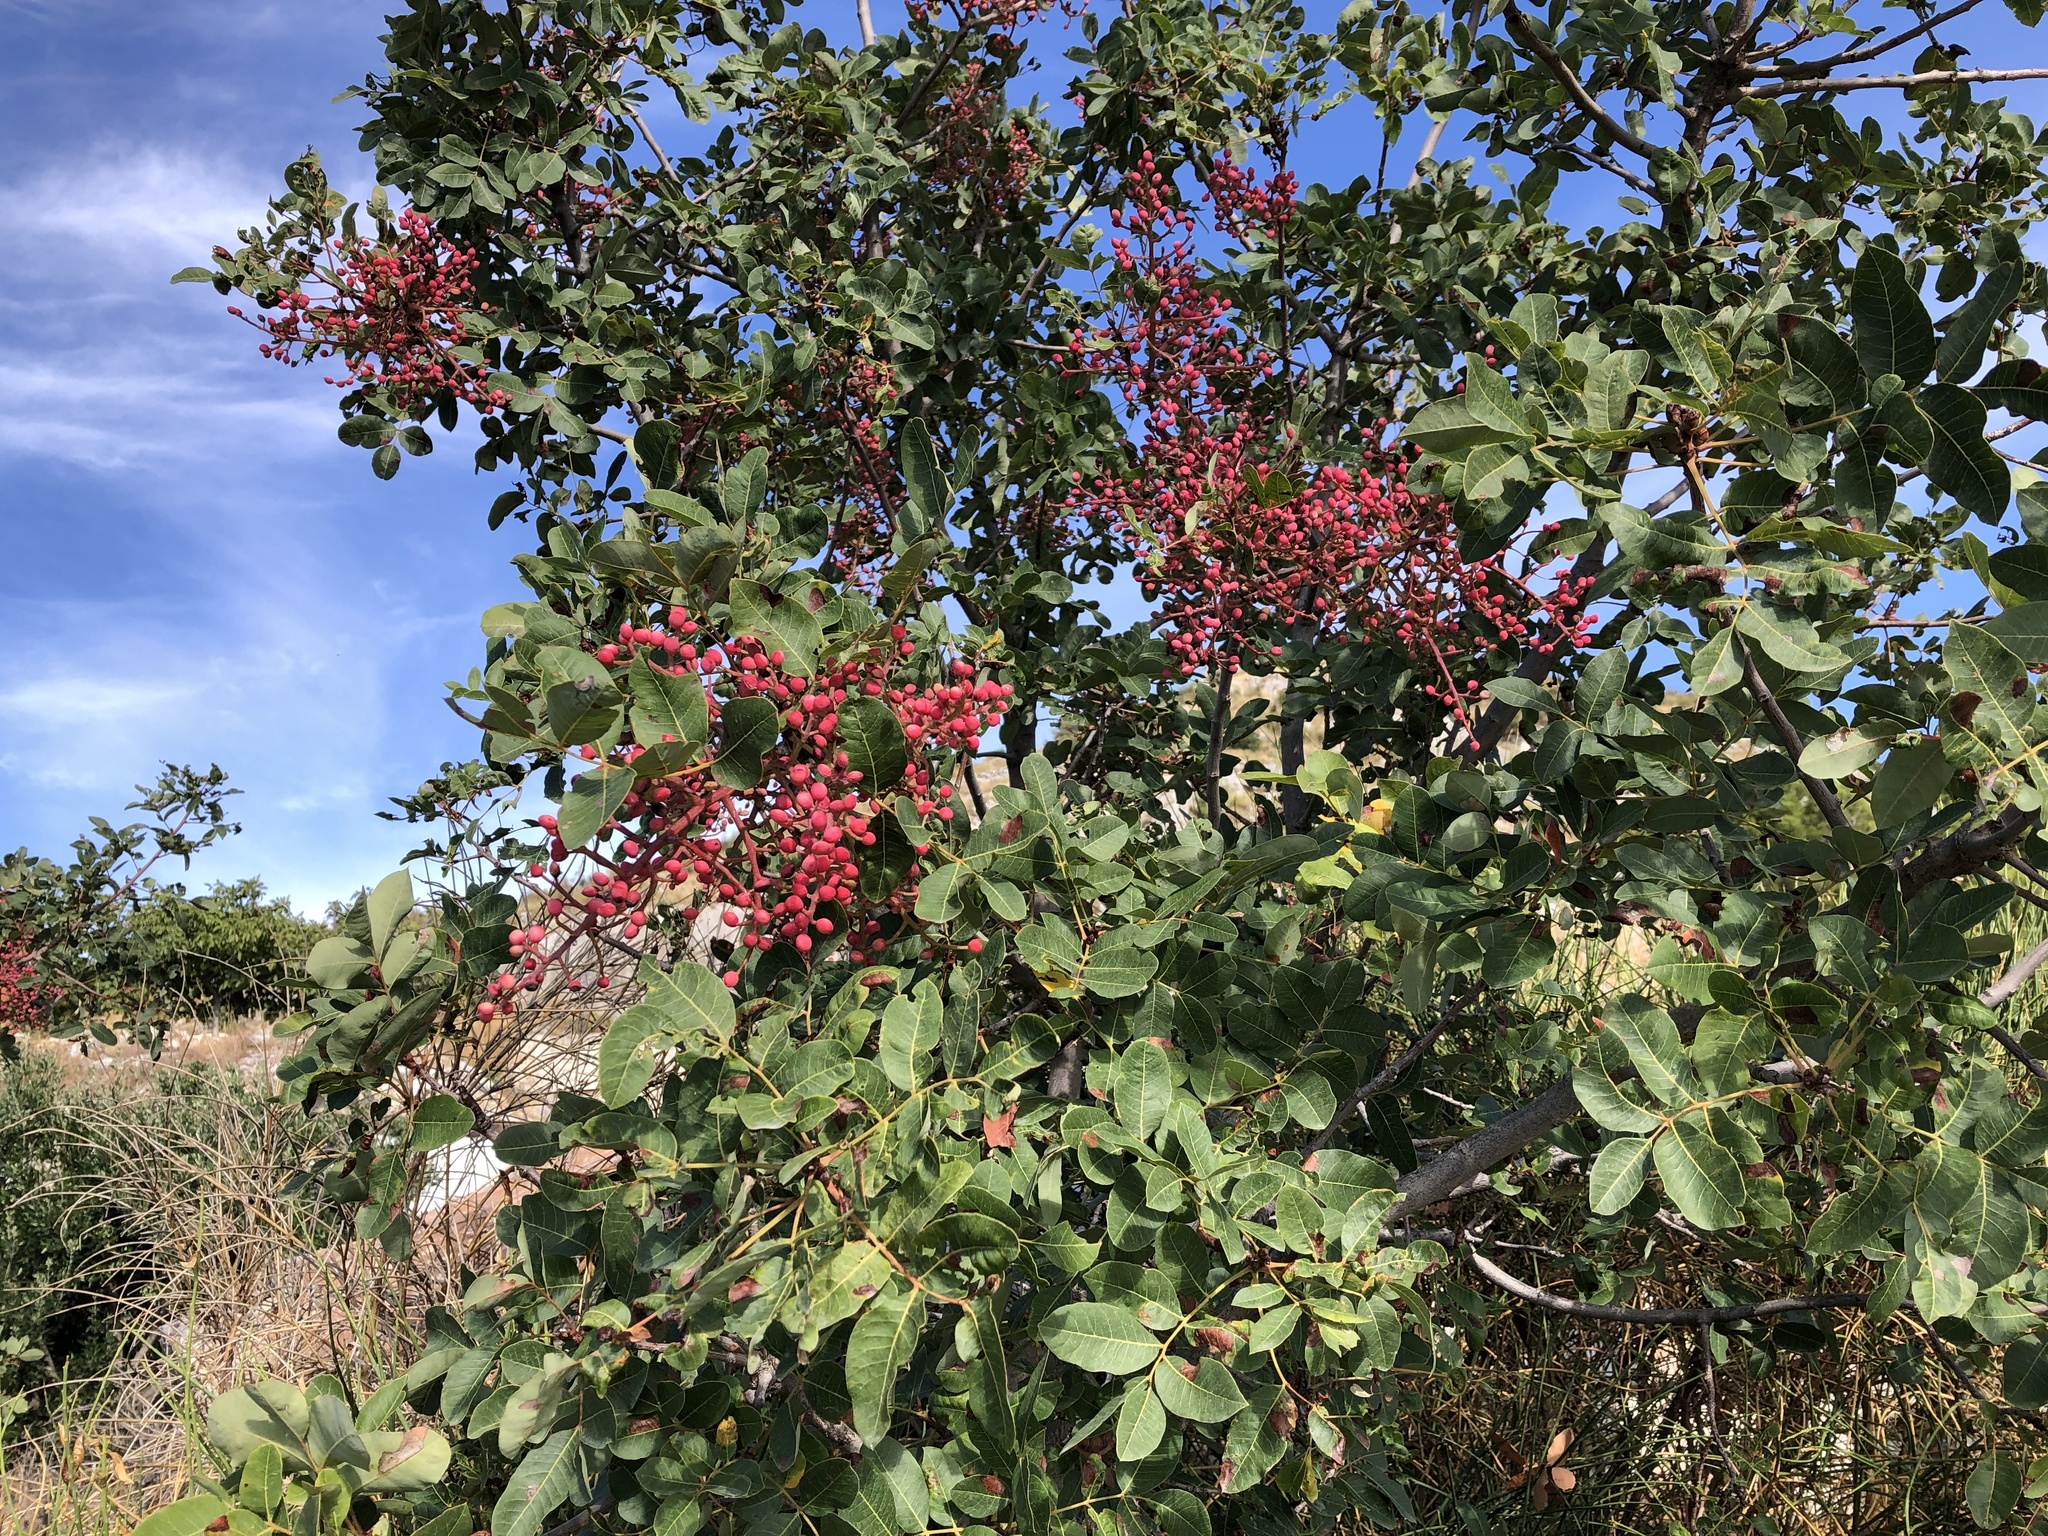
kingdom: Plantae
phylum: Tracheophyta
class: Magnoliopsida
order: Sapindales
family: Anacardiaceae
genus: Pistacia
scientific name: Pistacia terebinthus
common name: Terebinth
